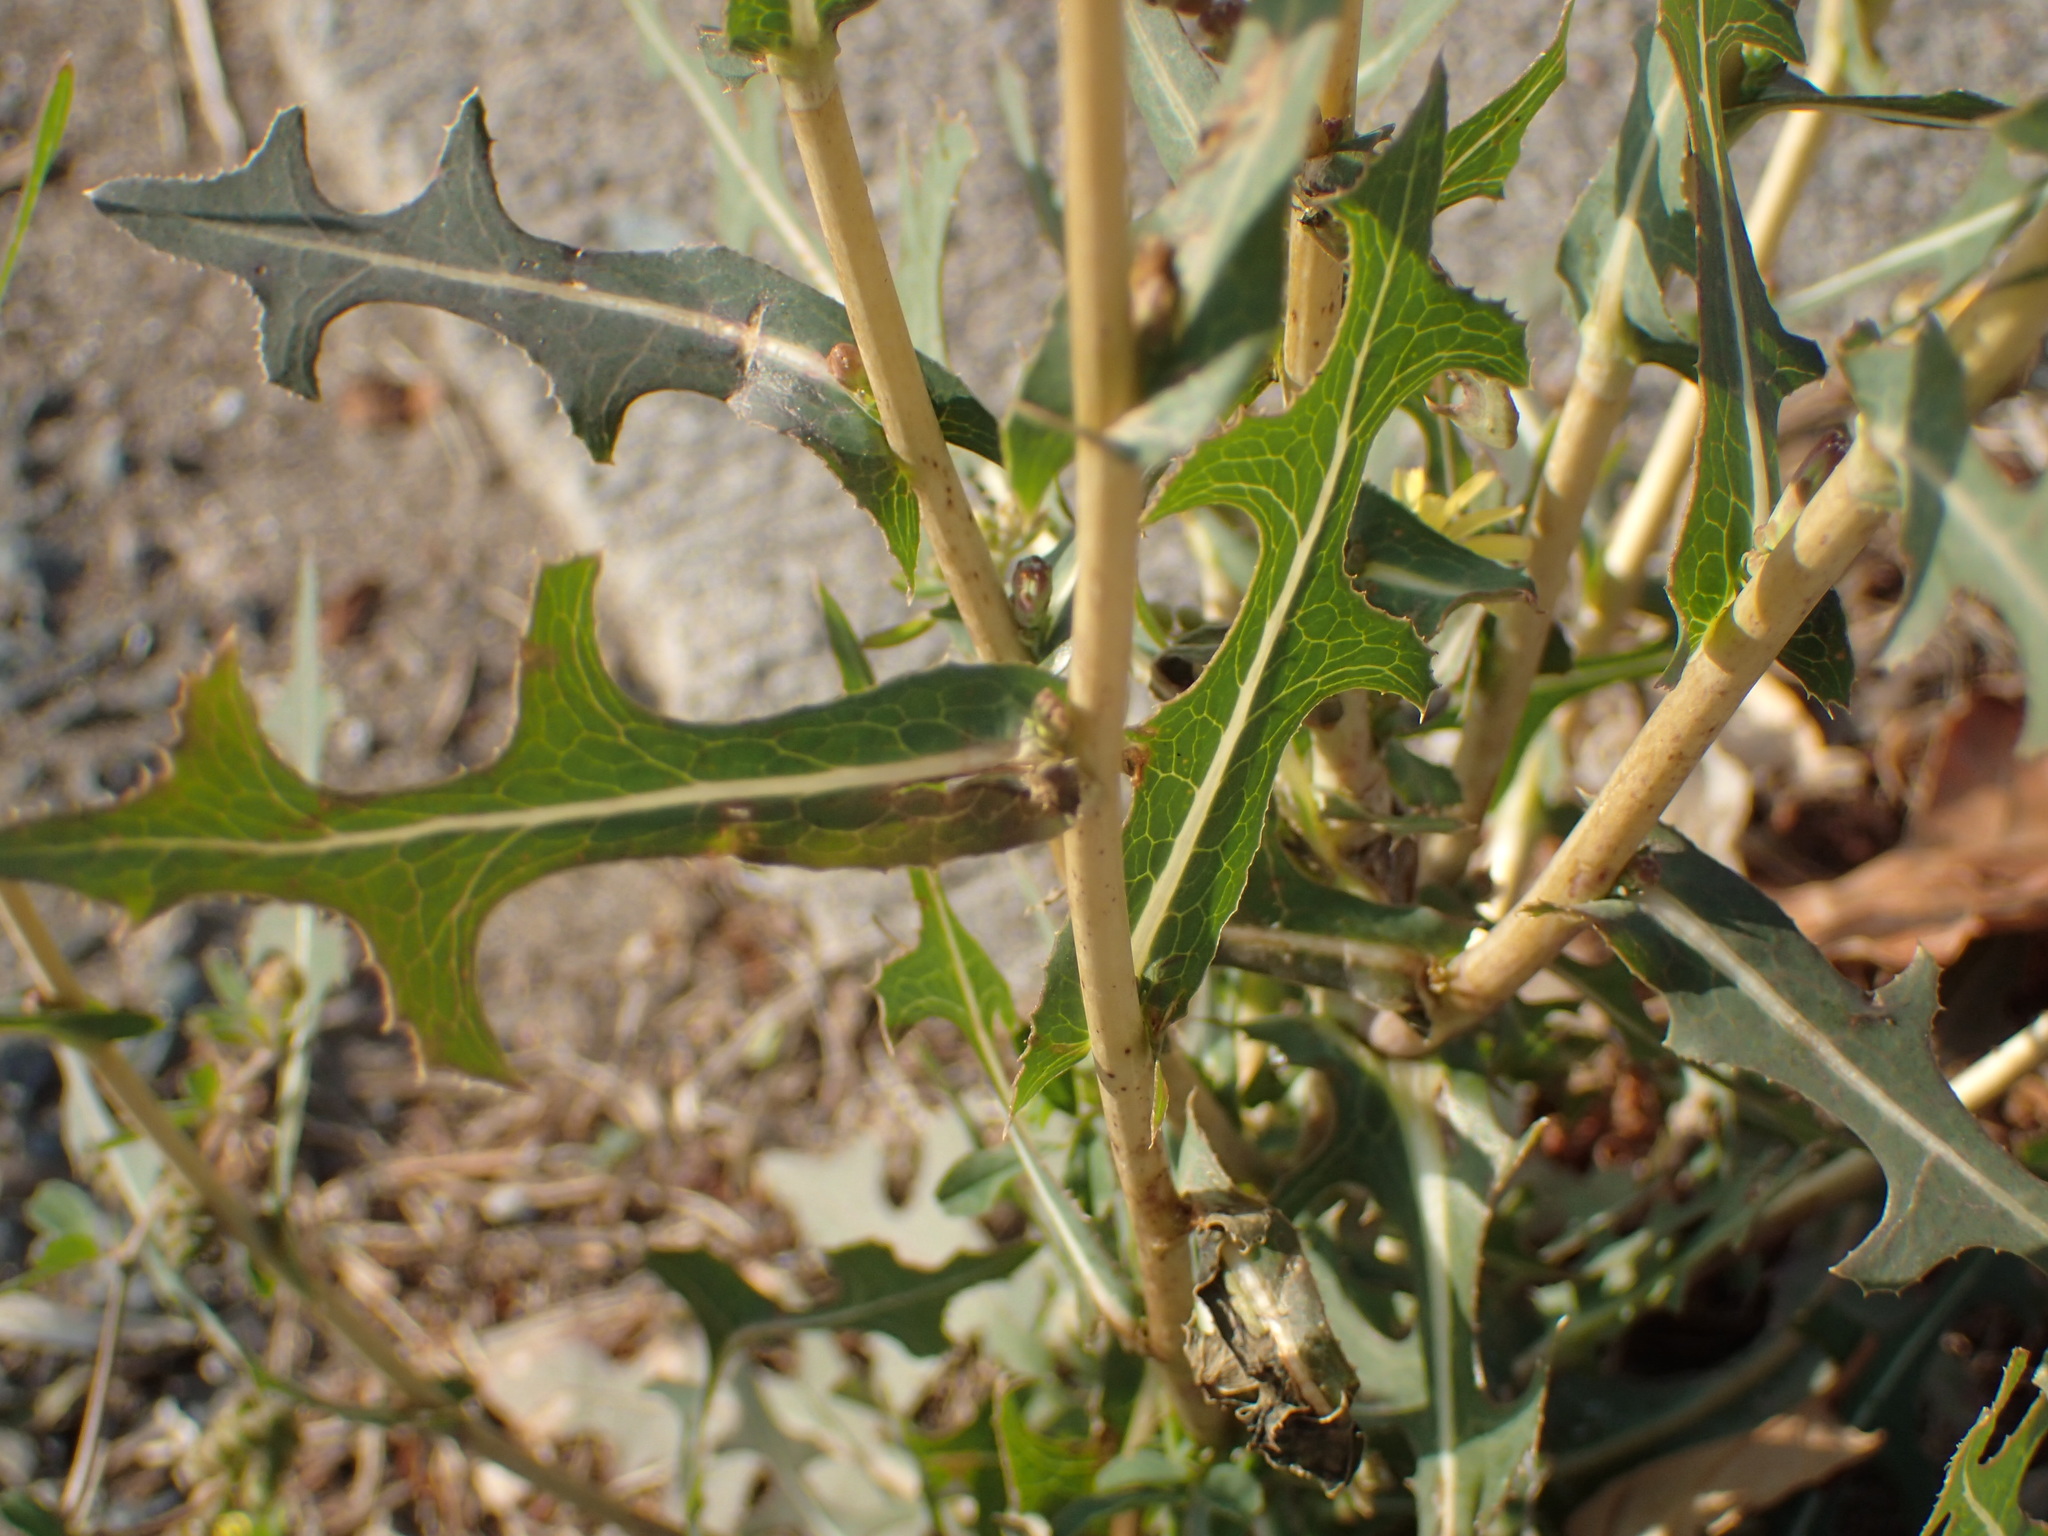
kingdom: Plantae
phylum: Tracheophyta
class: Magnoliopsida
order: Asterales
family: Asteraceae
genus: Lactuca
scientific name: Lactuca serriola
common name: Prickly lettuce
